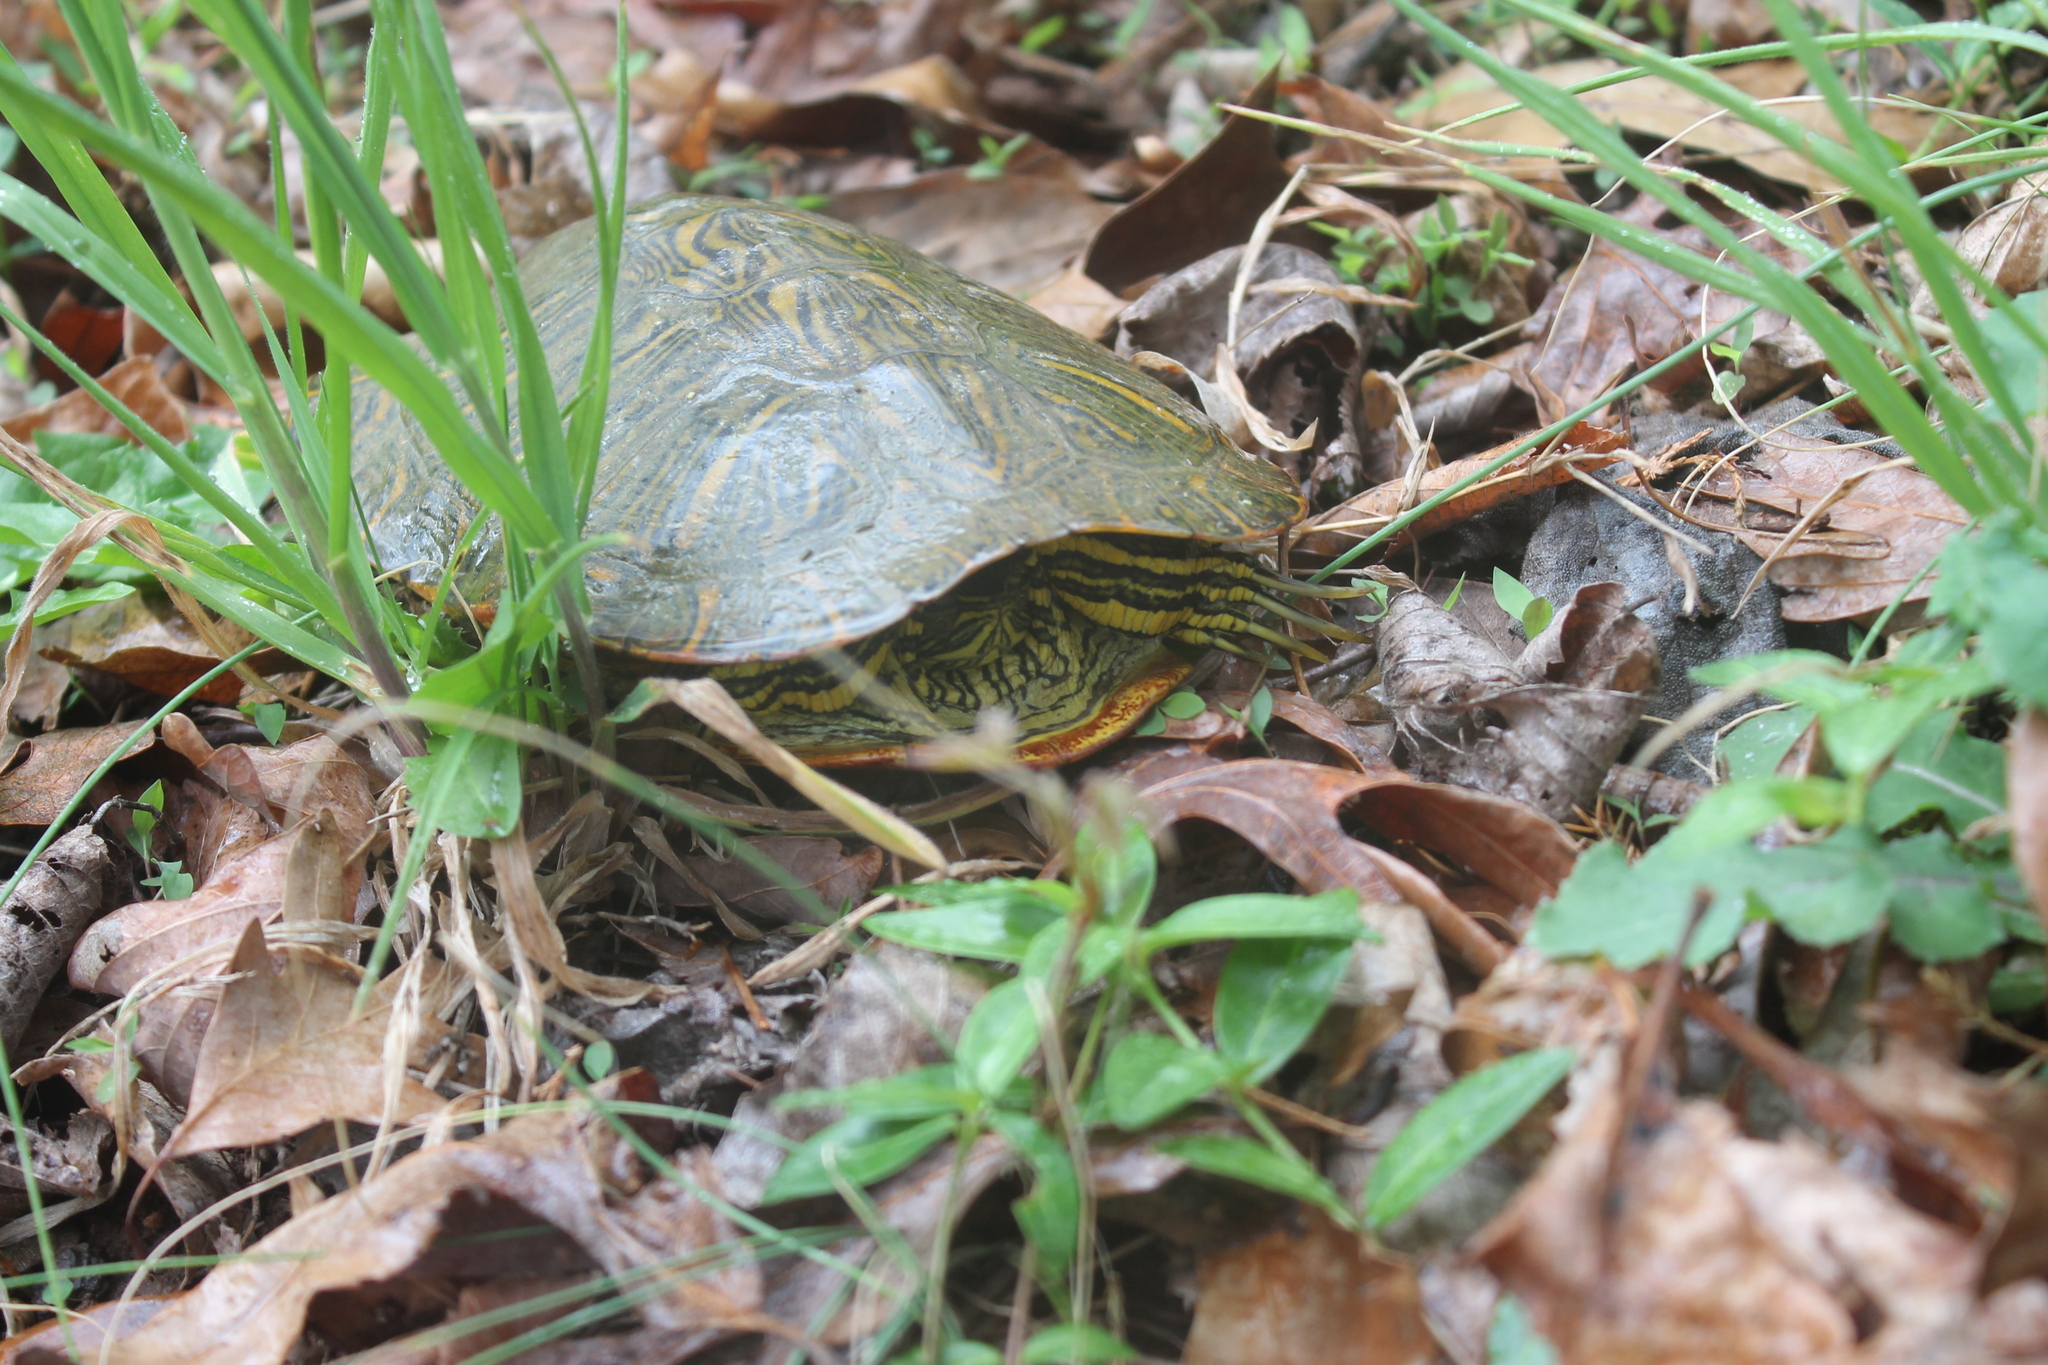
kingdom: Animalia
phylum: Chordata
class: Testudines
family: Emydidae
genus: Trachemys
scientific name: Trachemys scripta
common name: Slider
